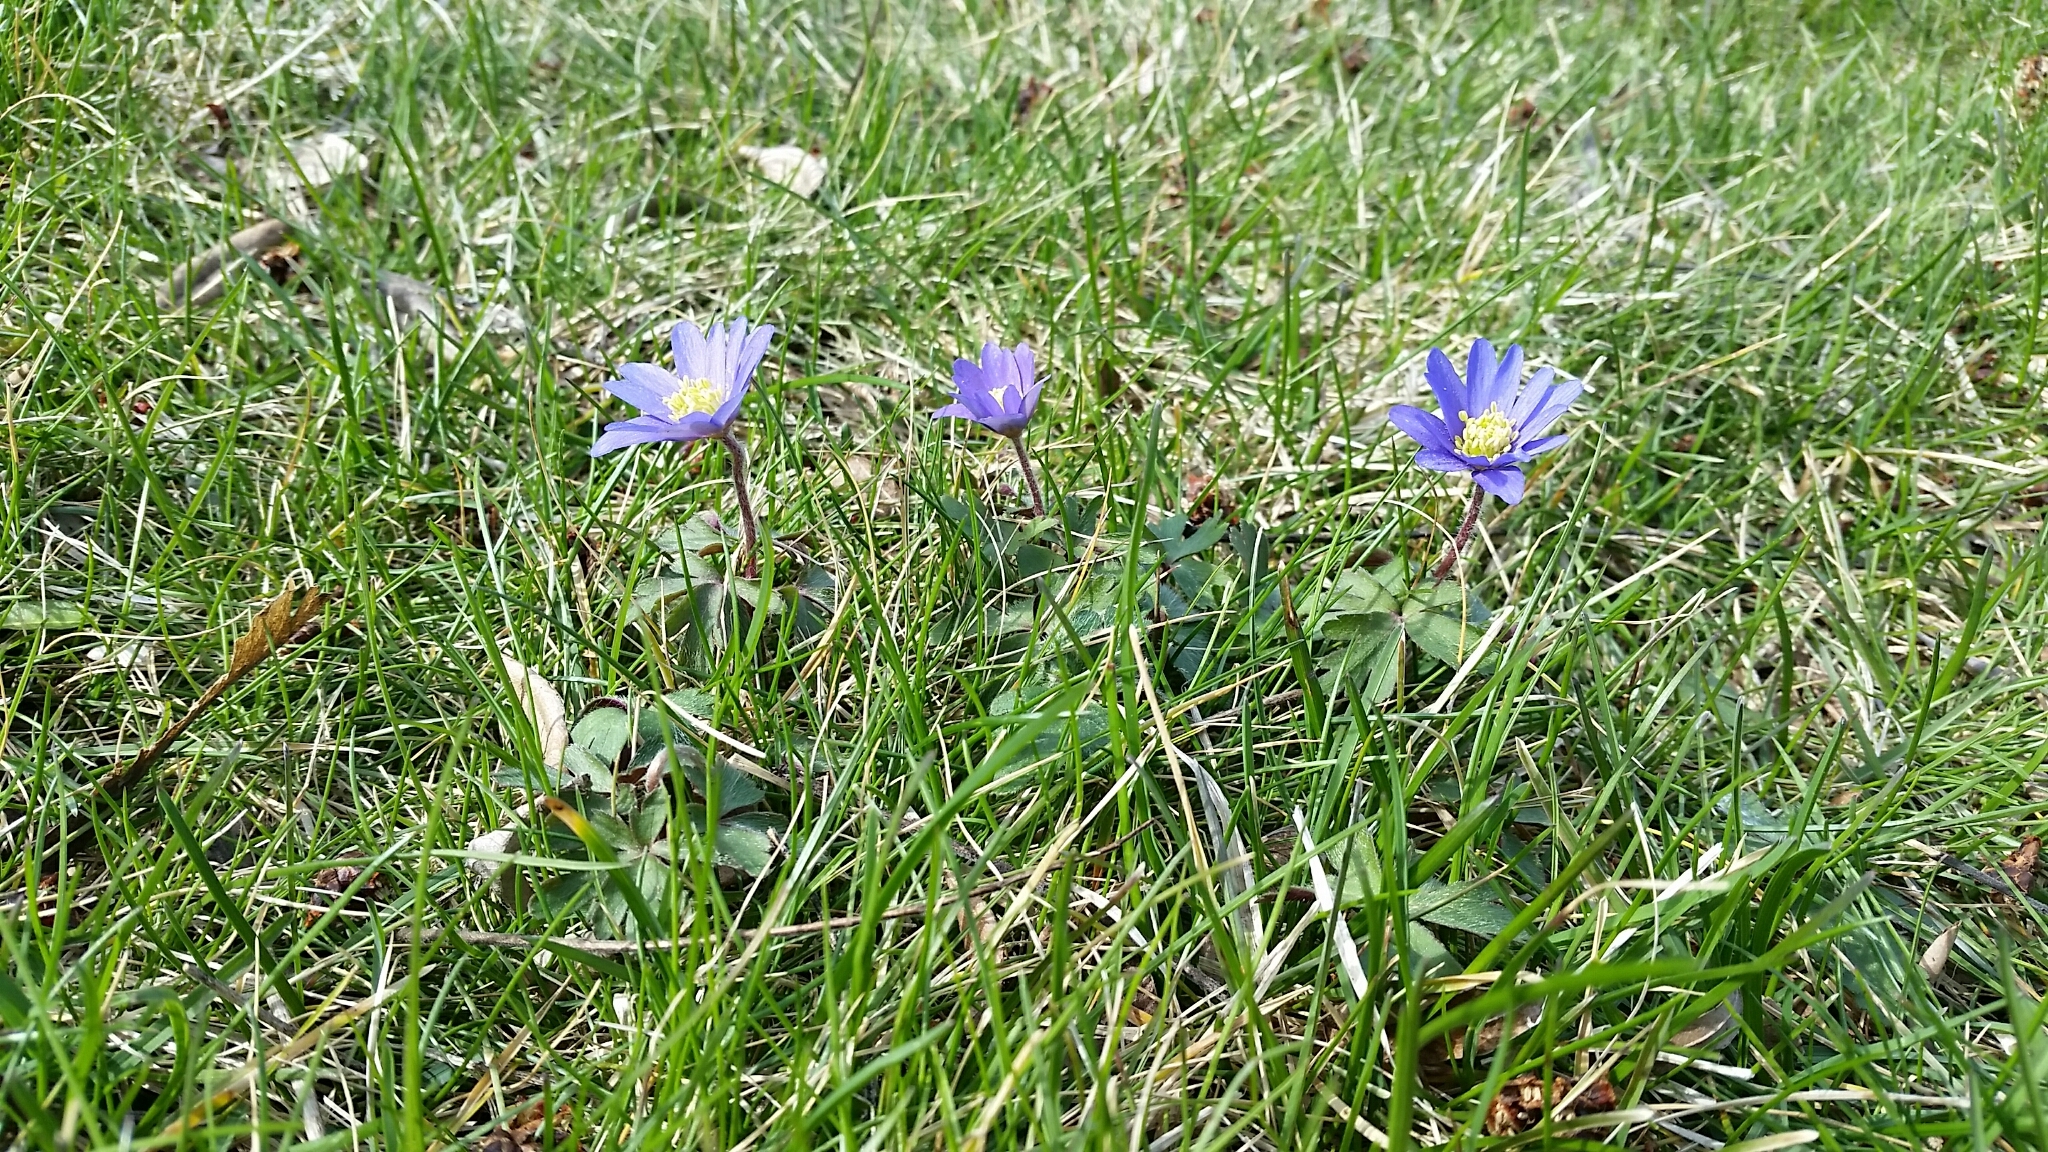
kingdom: Plantae
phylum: Tracheophyta
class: Magnoliopsida
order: Ranunculales
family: Ranunculaceae
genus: Anemone
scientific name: Anemone blanda
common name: Balkan anemone
